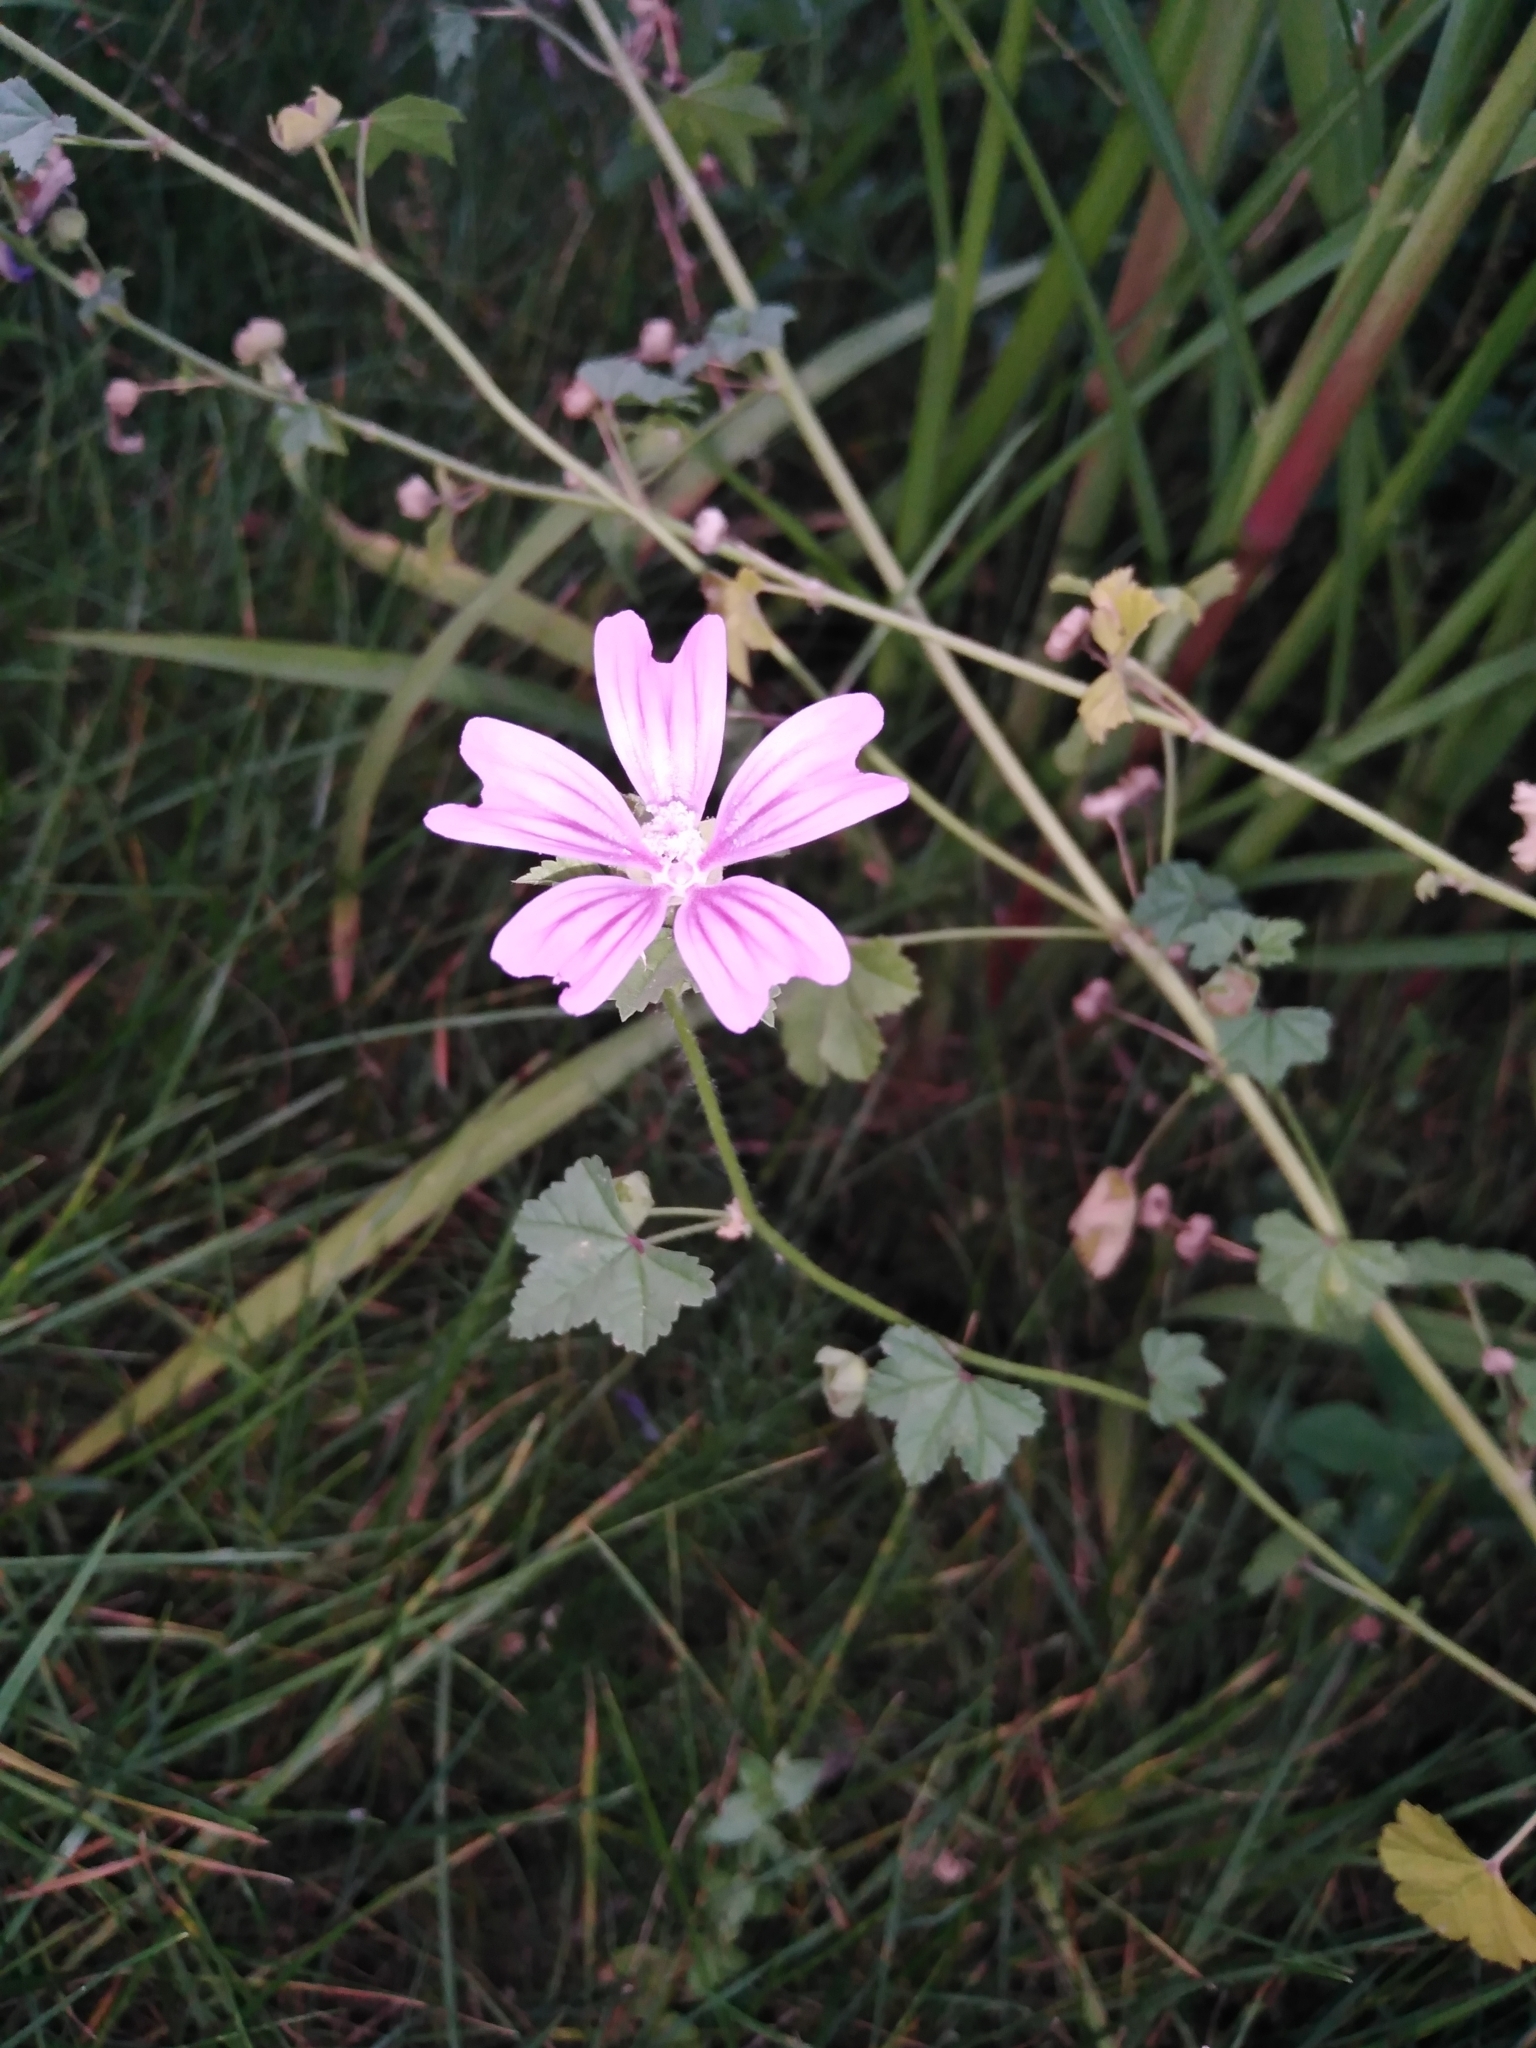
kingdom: Plantae
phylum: Tracheophyta
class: Magnoliopsida
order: Malvales
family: Malvaceae
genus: Malva
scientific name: Malva sylvestris
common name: Common mallow
